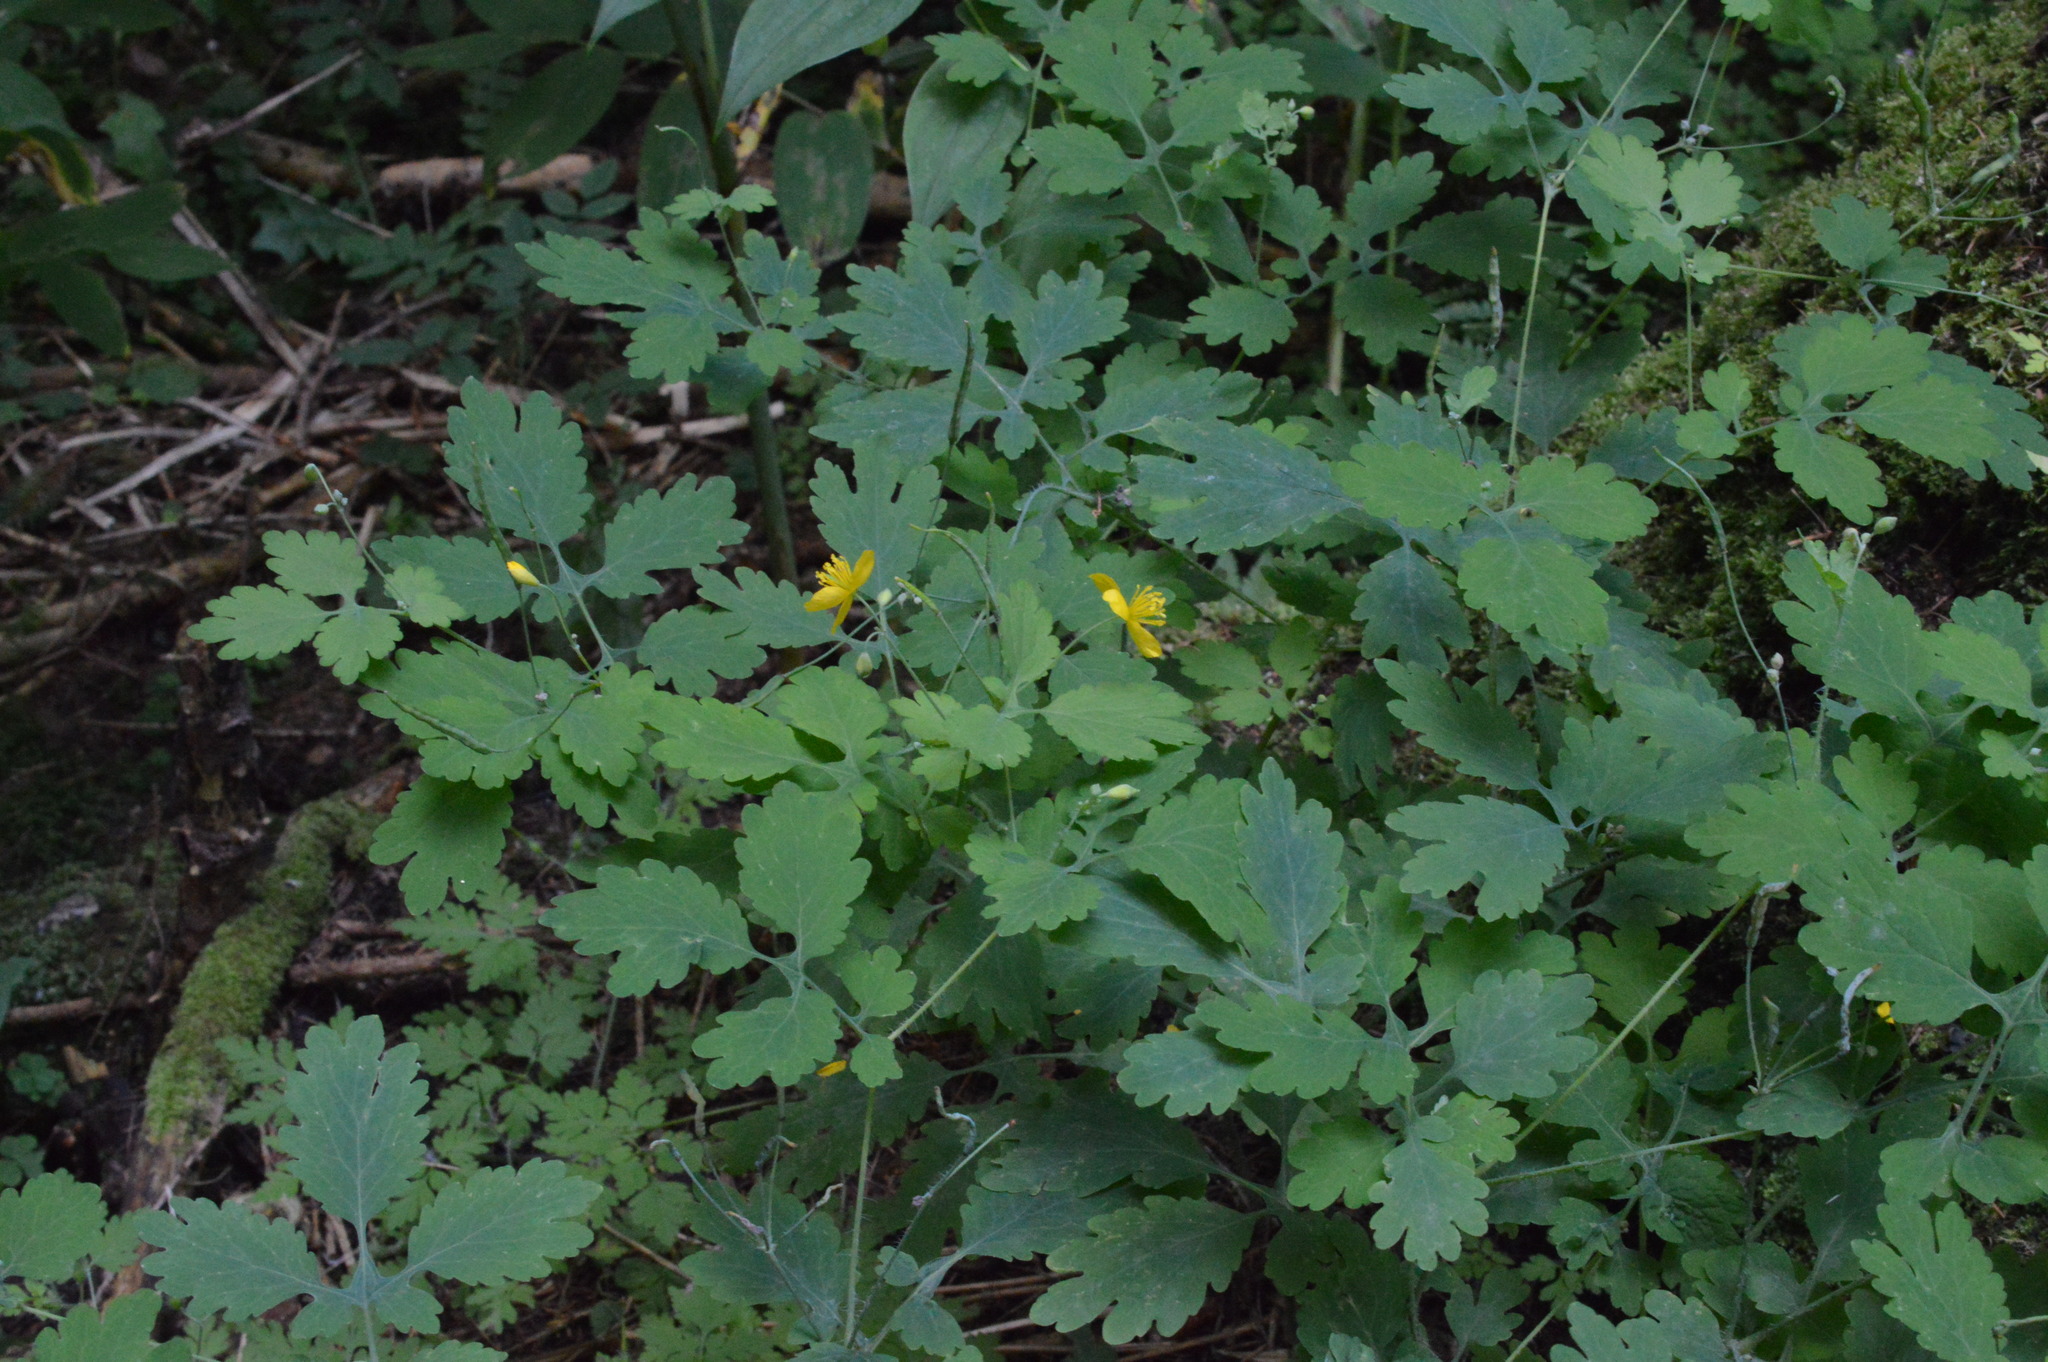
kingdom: Plantae
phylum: Tracheophyta
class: Magnoliopsida
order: Ranunculales
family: Papaveraceae
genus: Chelidonium
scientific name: Chelidonium majus
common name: Greater celandine
